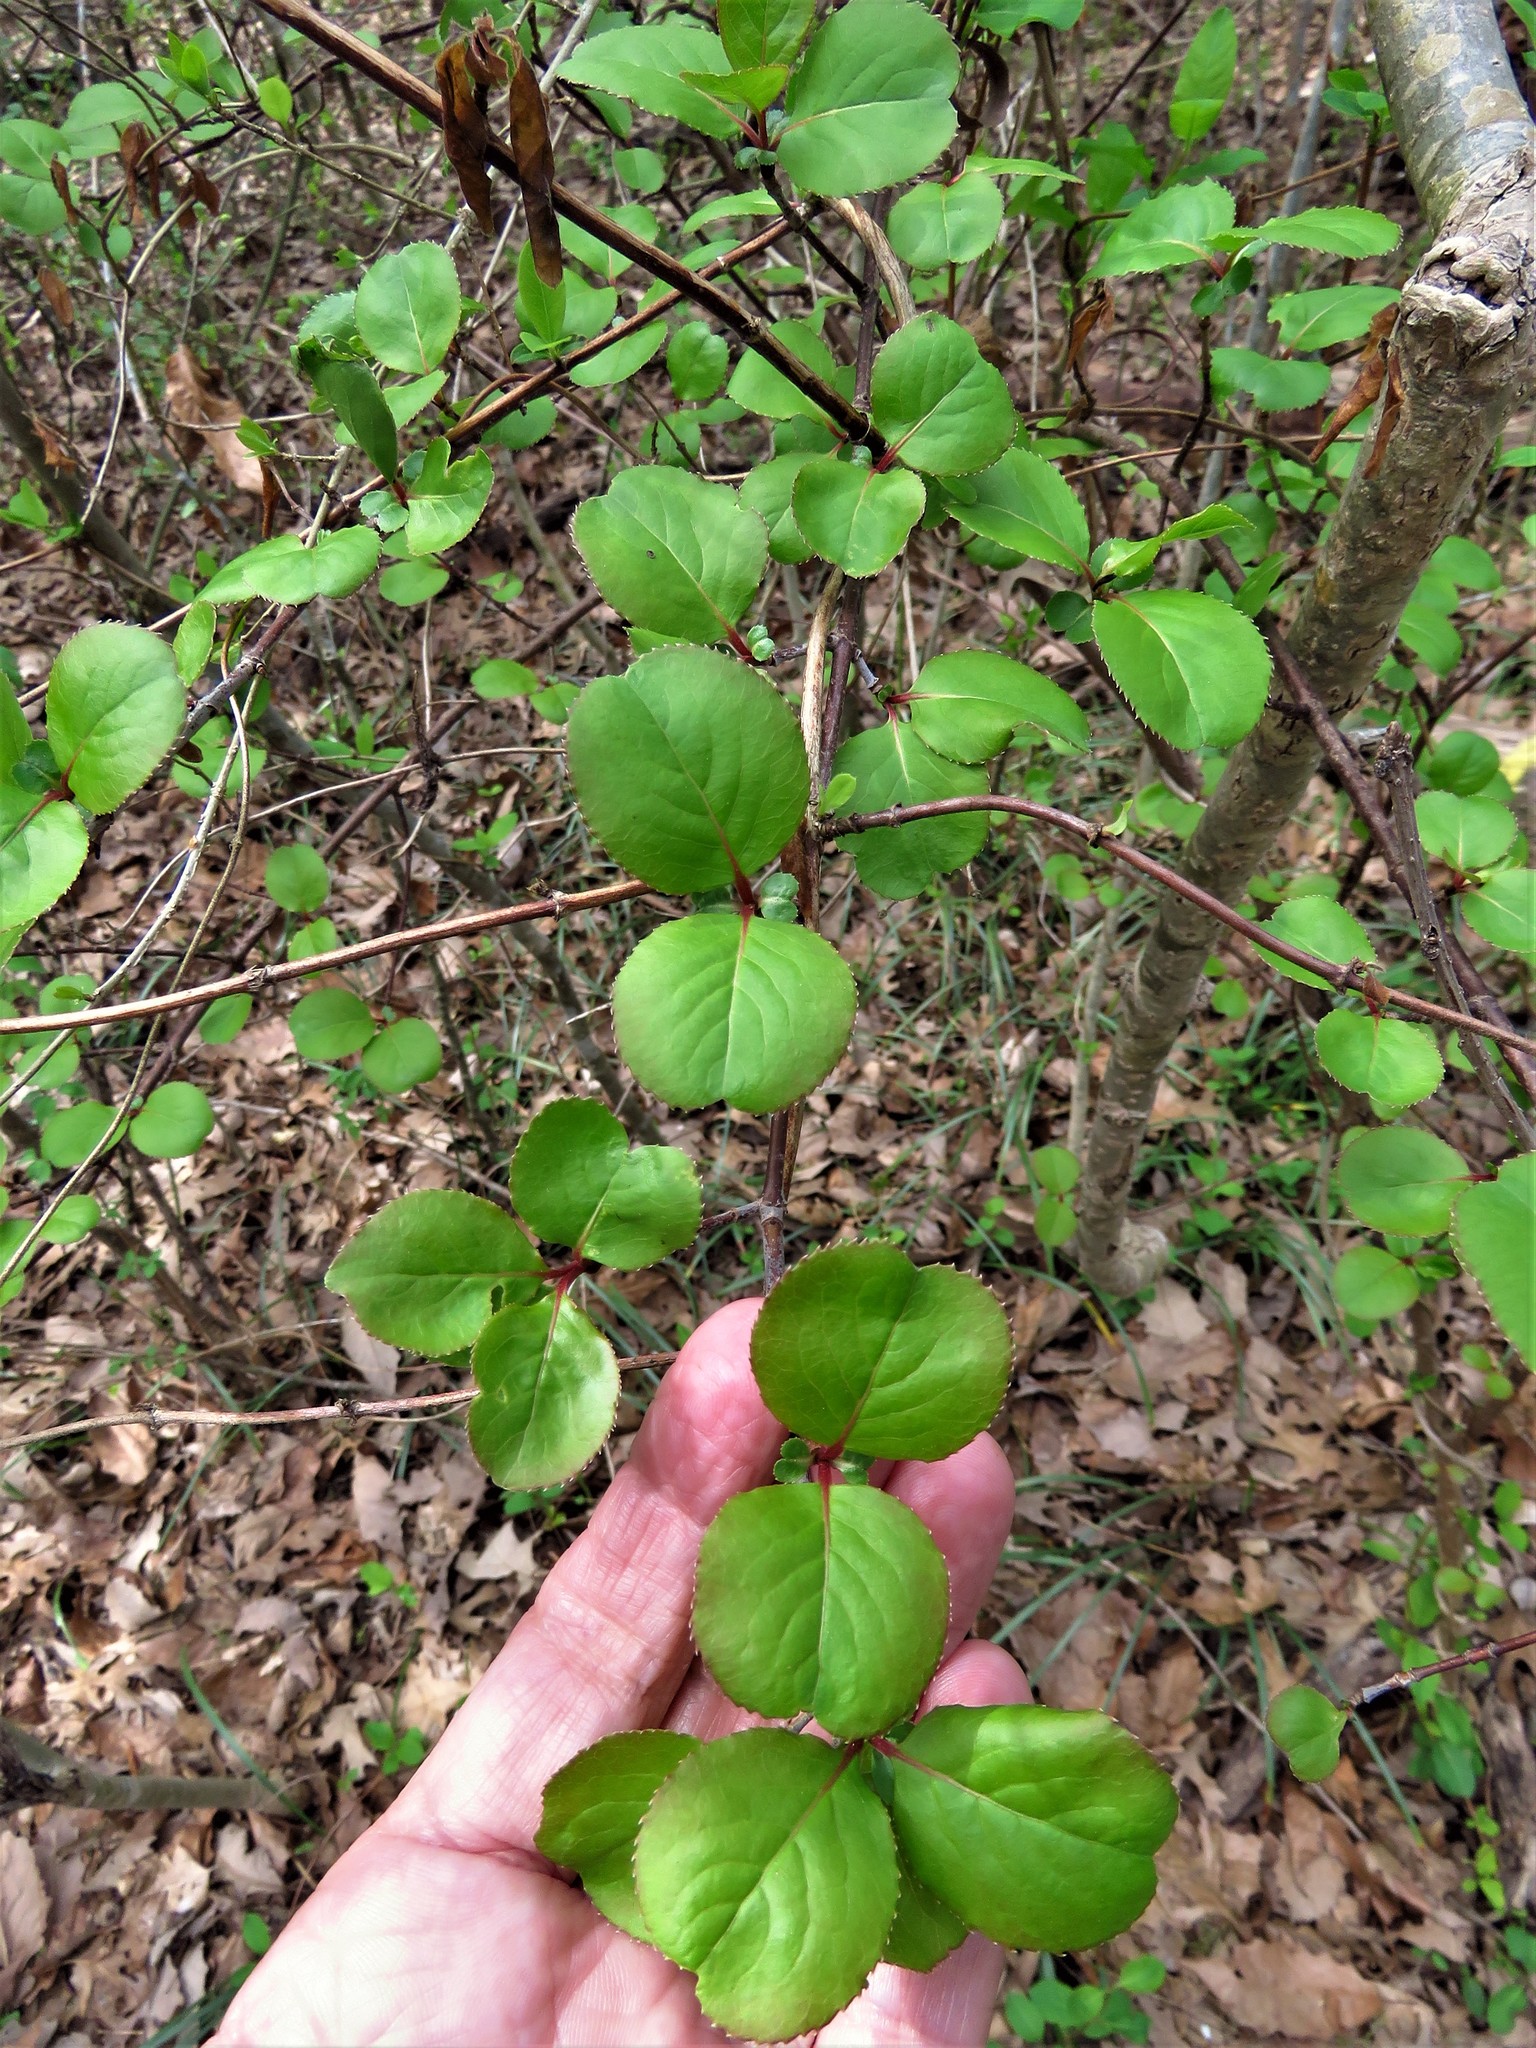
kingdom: Plantae
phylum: Tracheophyta
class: Magnoliopsida
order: Dipsacales
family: Viburnaceae
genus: Viburnum
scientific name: Viburnum rufidulum
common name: Blue haw
